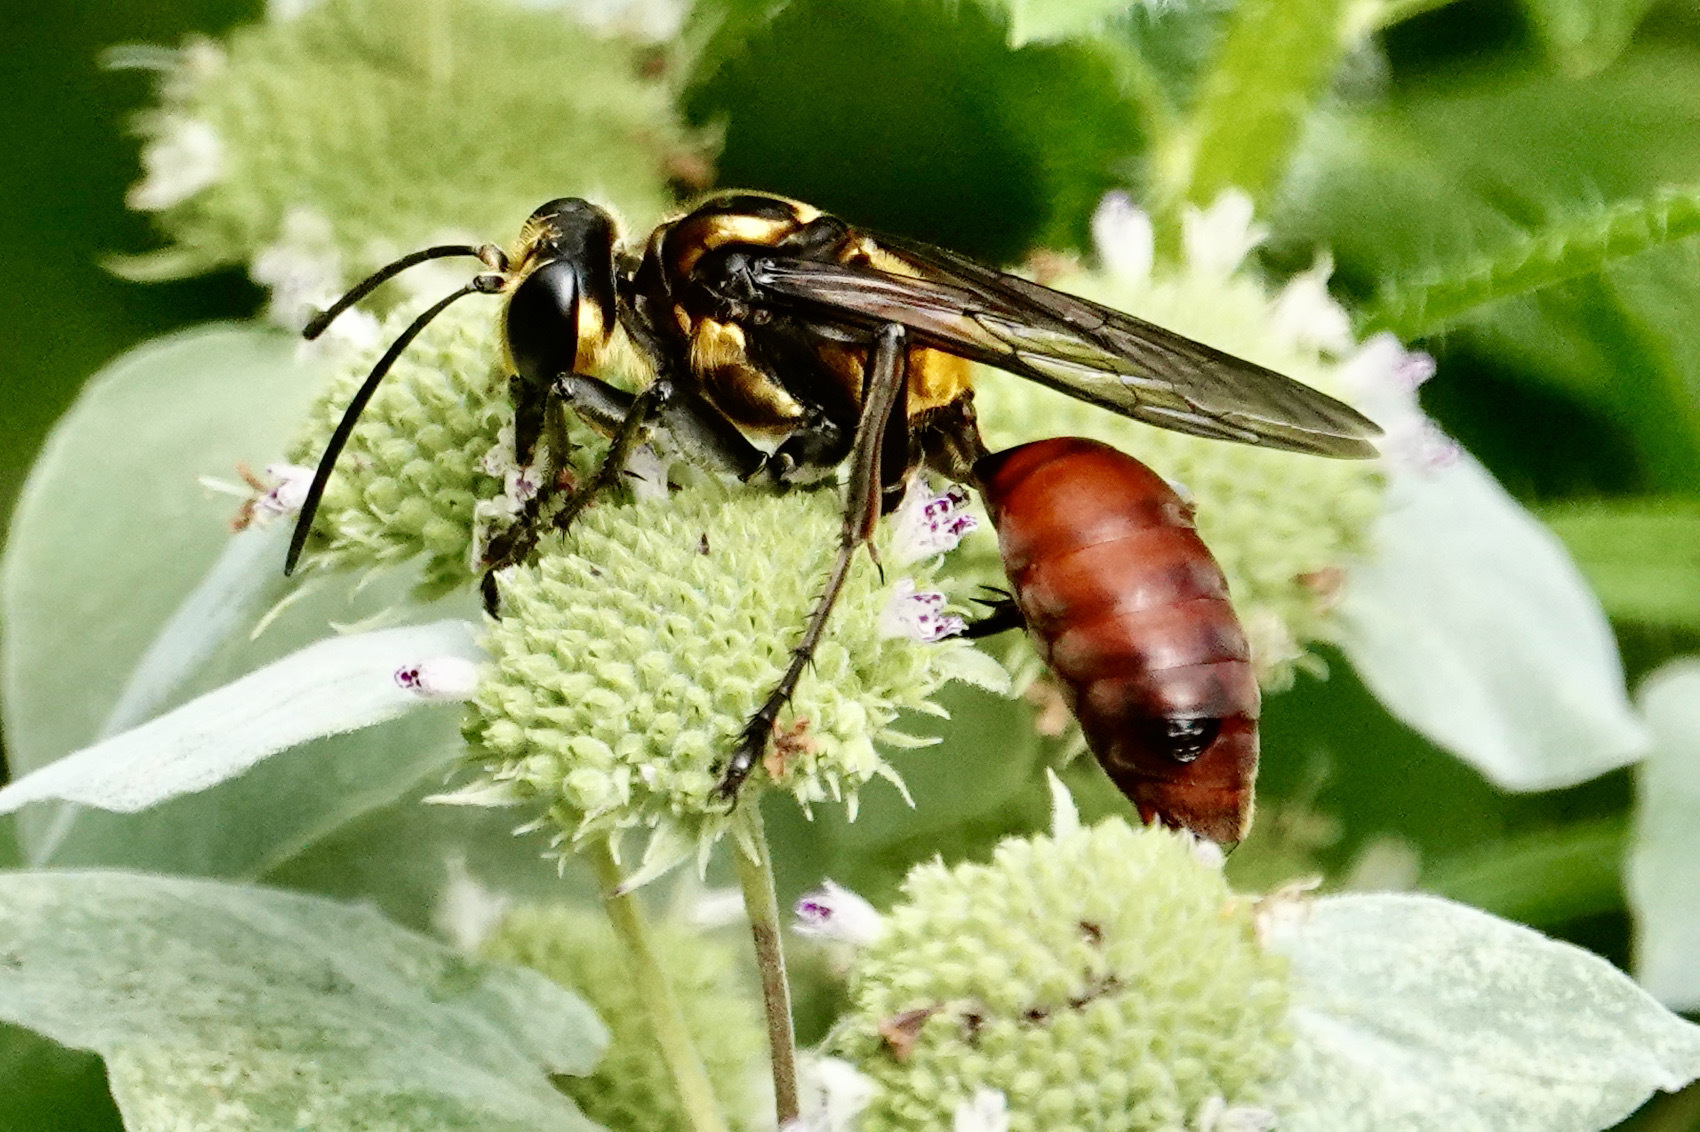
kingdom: Animalia
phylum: Arthropoda
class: Insecta
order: Hymenoptera
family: Sphecidae
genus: Sphex
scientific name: Sphex habenus
